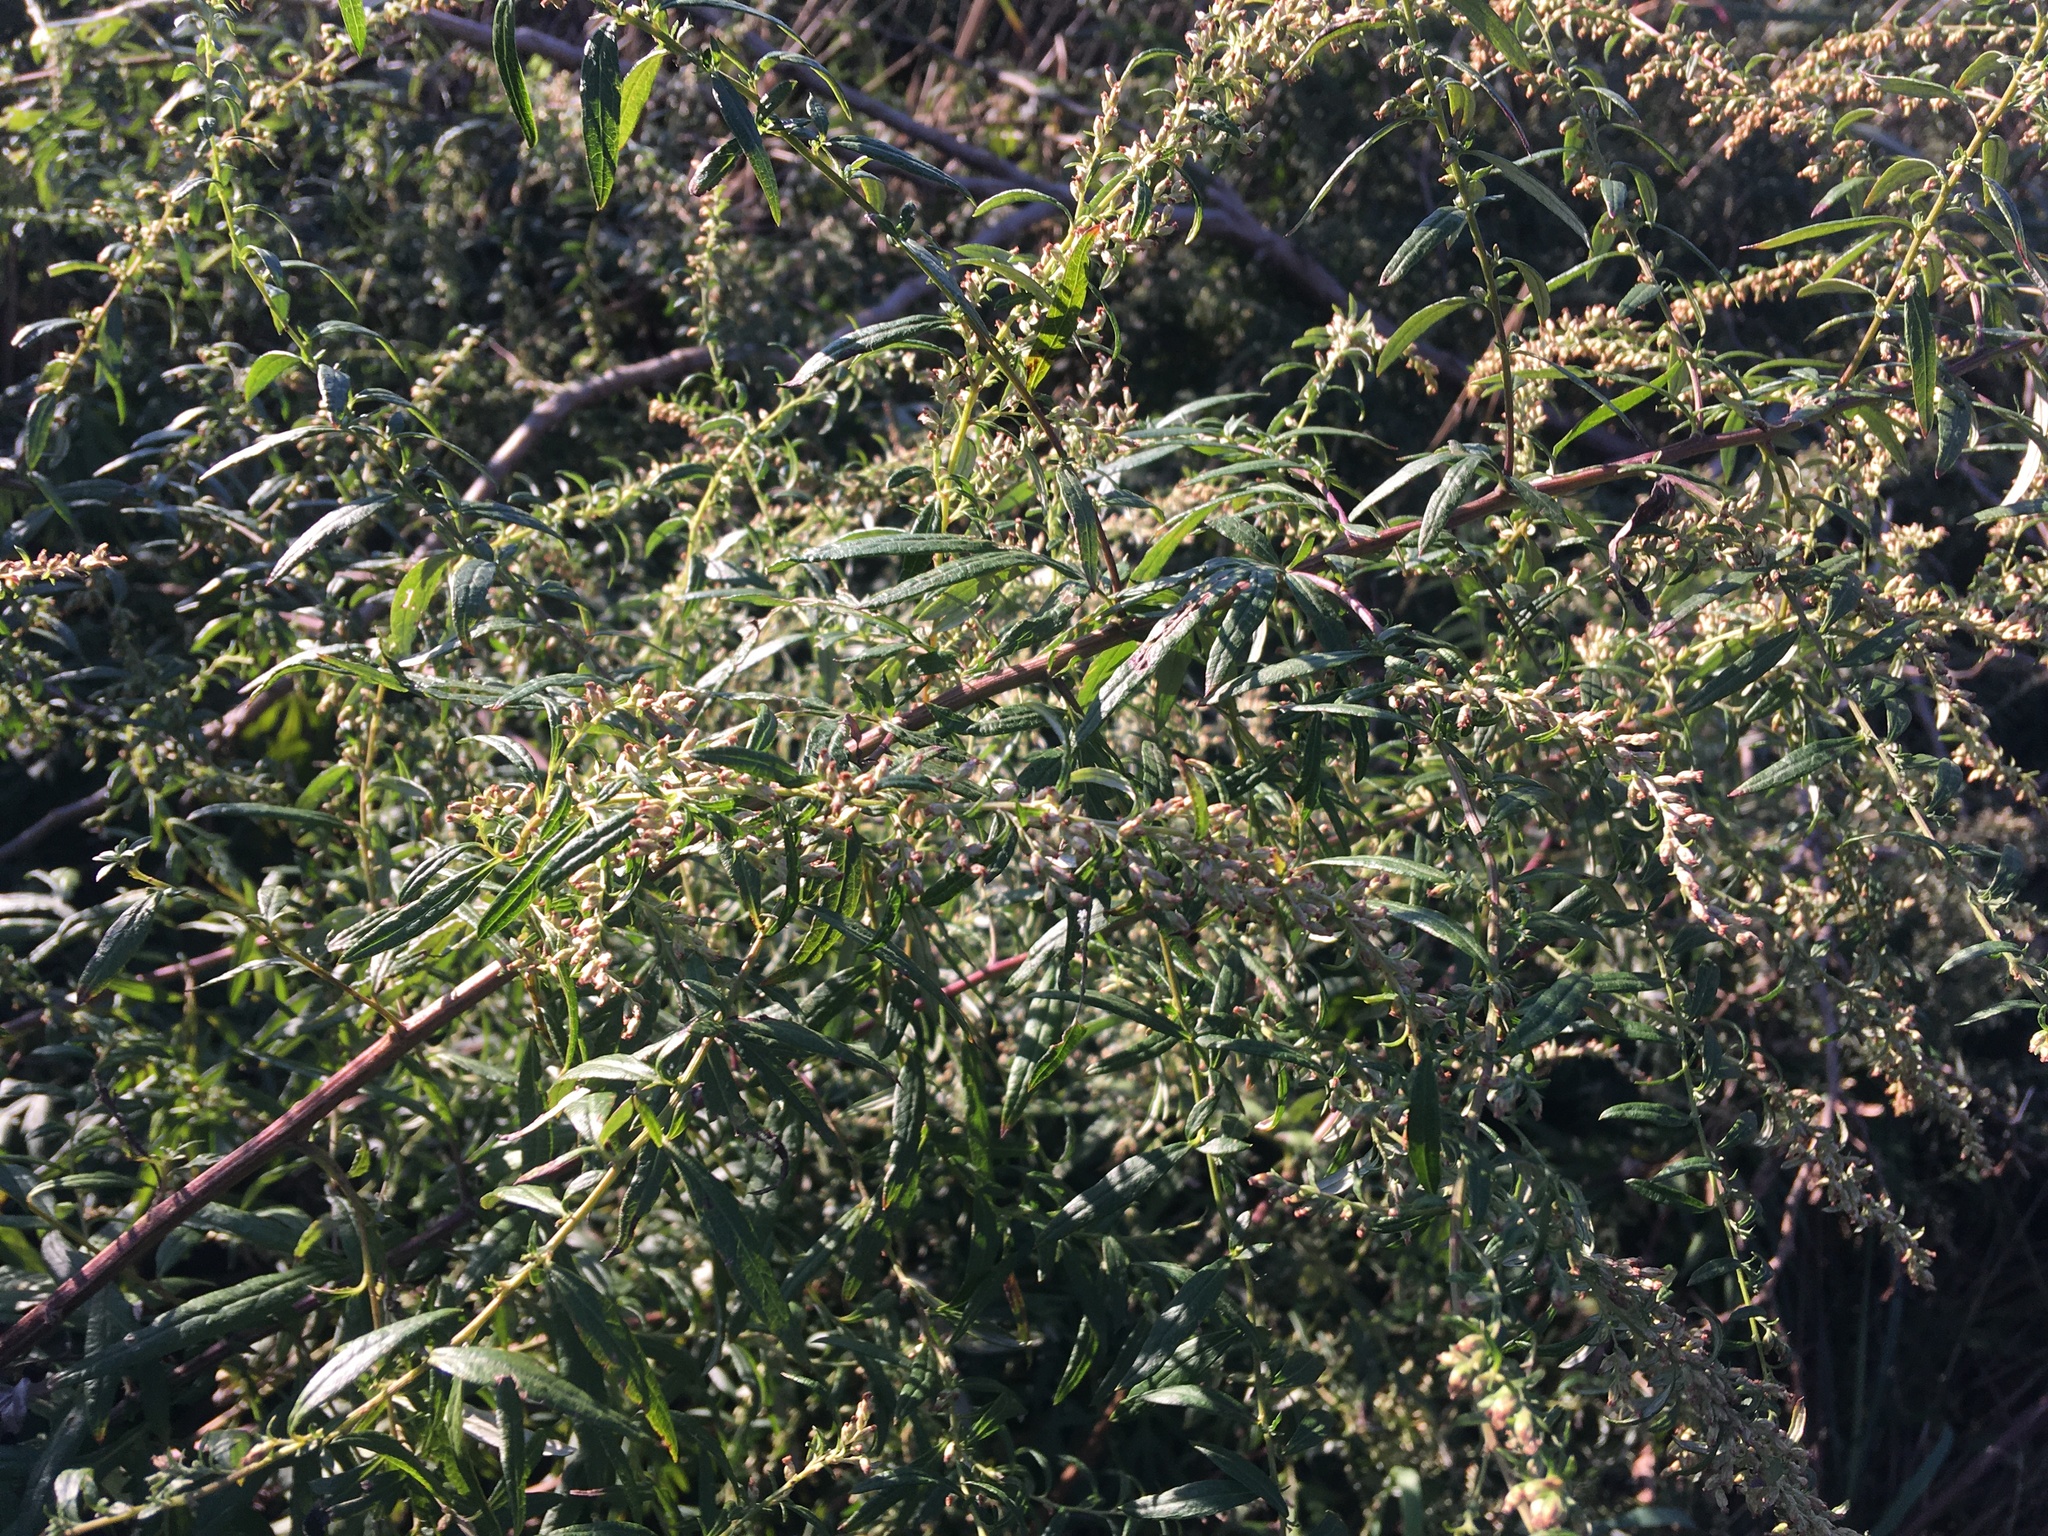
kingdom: Plantae
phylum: Tracheophyta
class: Magnoliopsida
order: Asterales
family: Asteraceae
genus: Artemisia
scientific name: Artemisia vulgaris
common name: Mugwort
